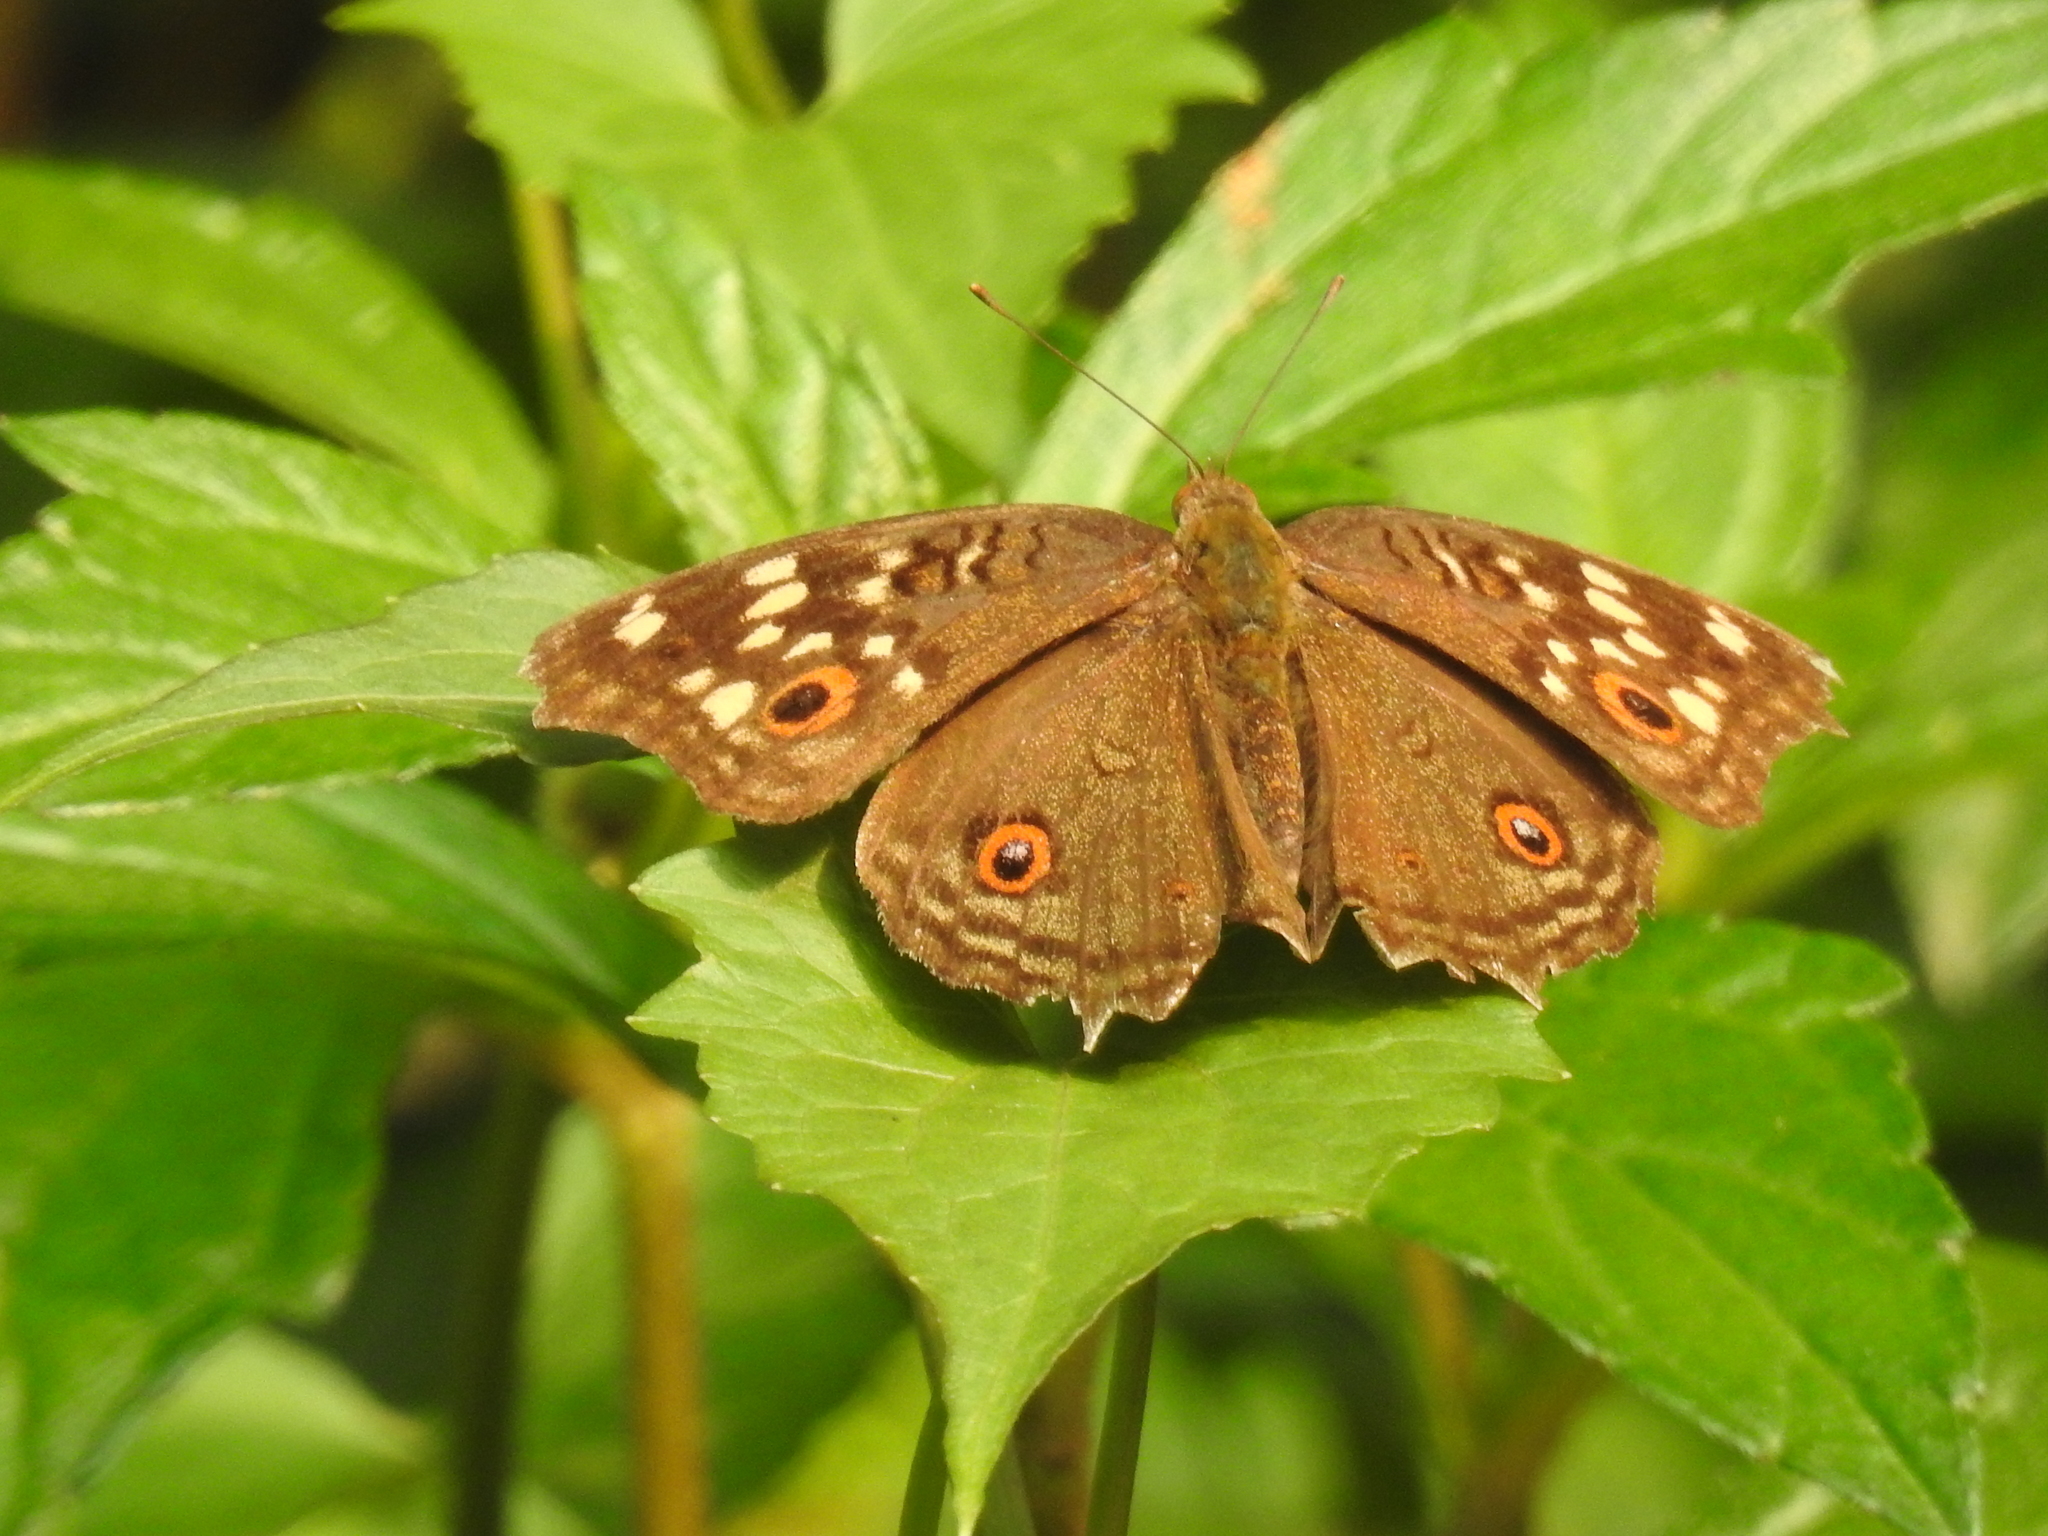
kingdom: Animalia
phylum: Arthropoda
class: Insecta
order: Lepidoptera
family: Nymphalidae
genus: Junonia
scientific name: Junonia lemonias
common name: Lemon pansy
